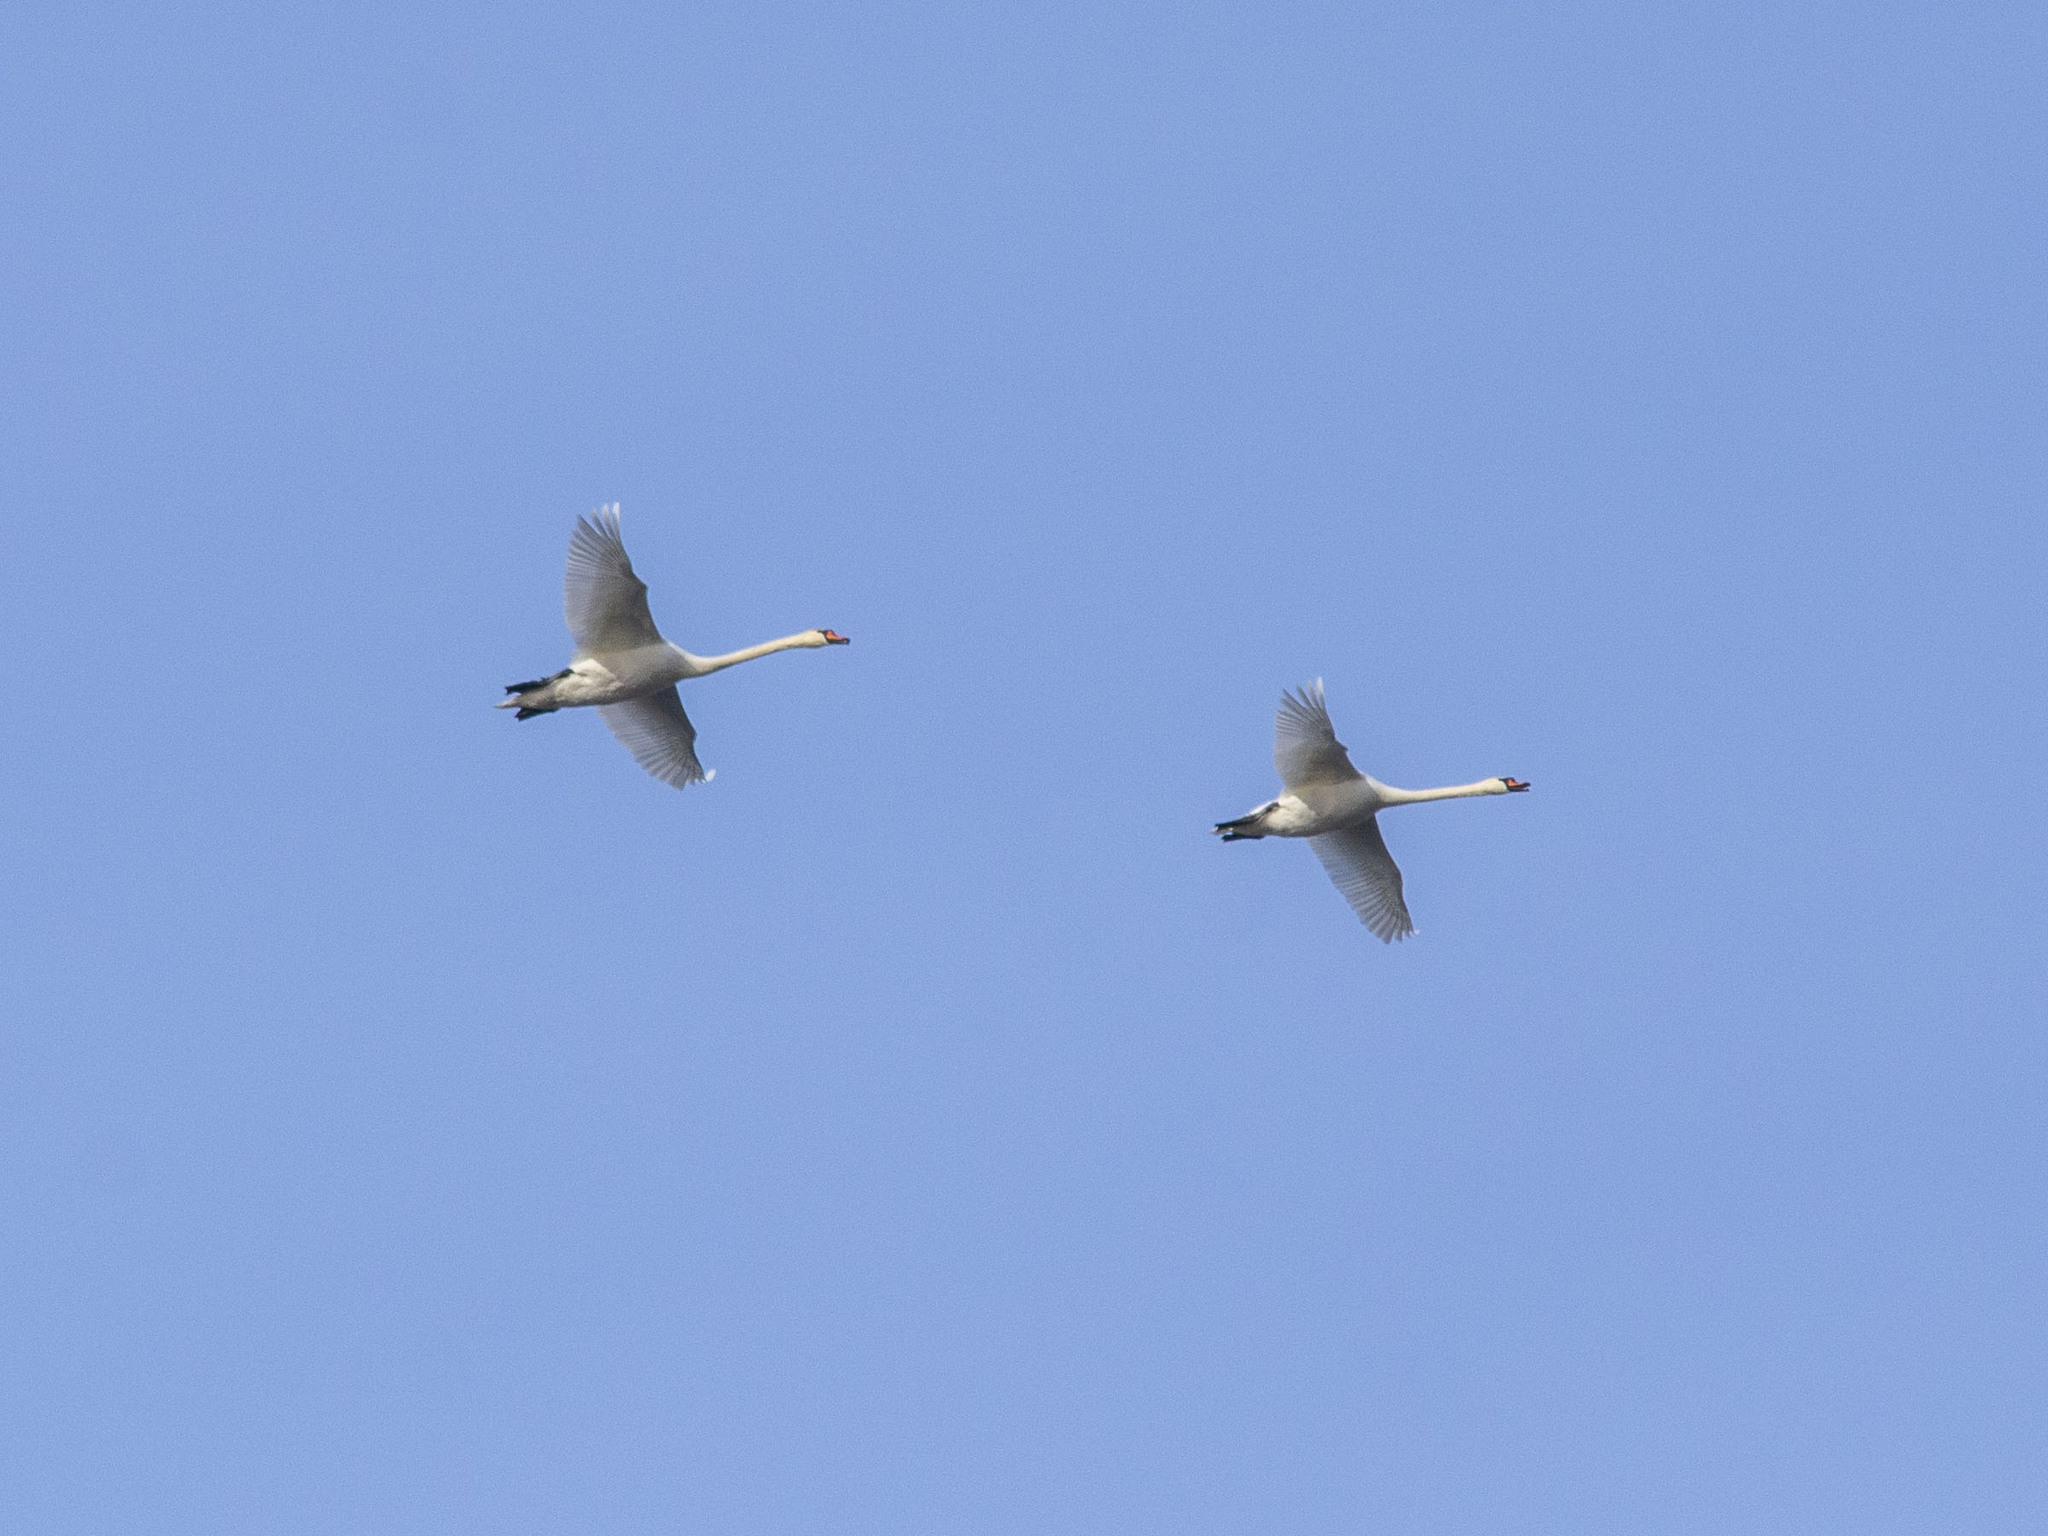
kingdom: Animalia
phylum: Chordata
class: Aves
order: Anseriformes
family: Anatidae
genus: Cygnus
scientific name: Cygnus olor
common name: Mute swan
